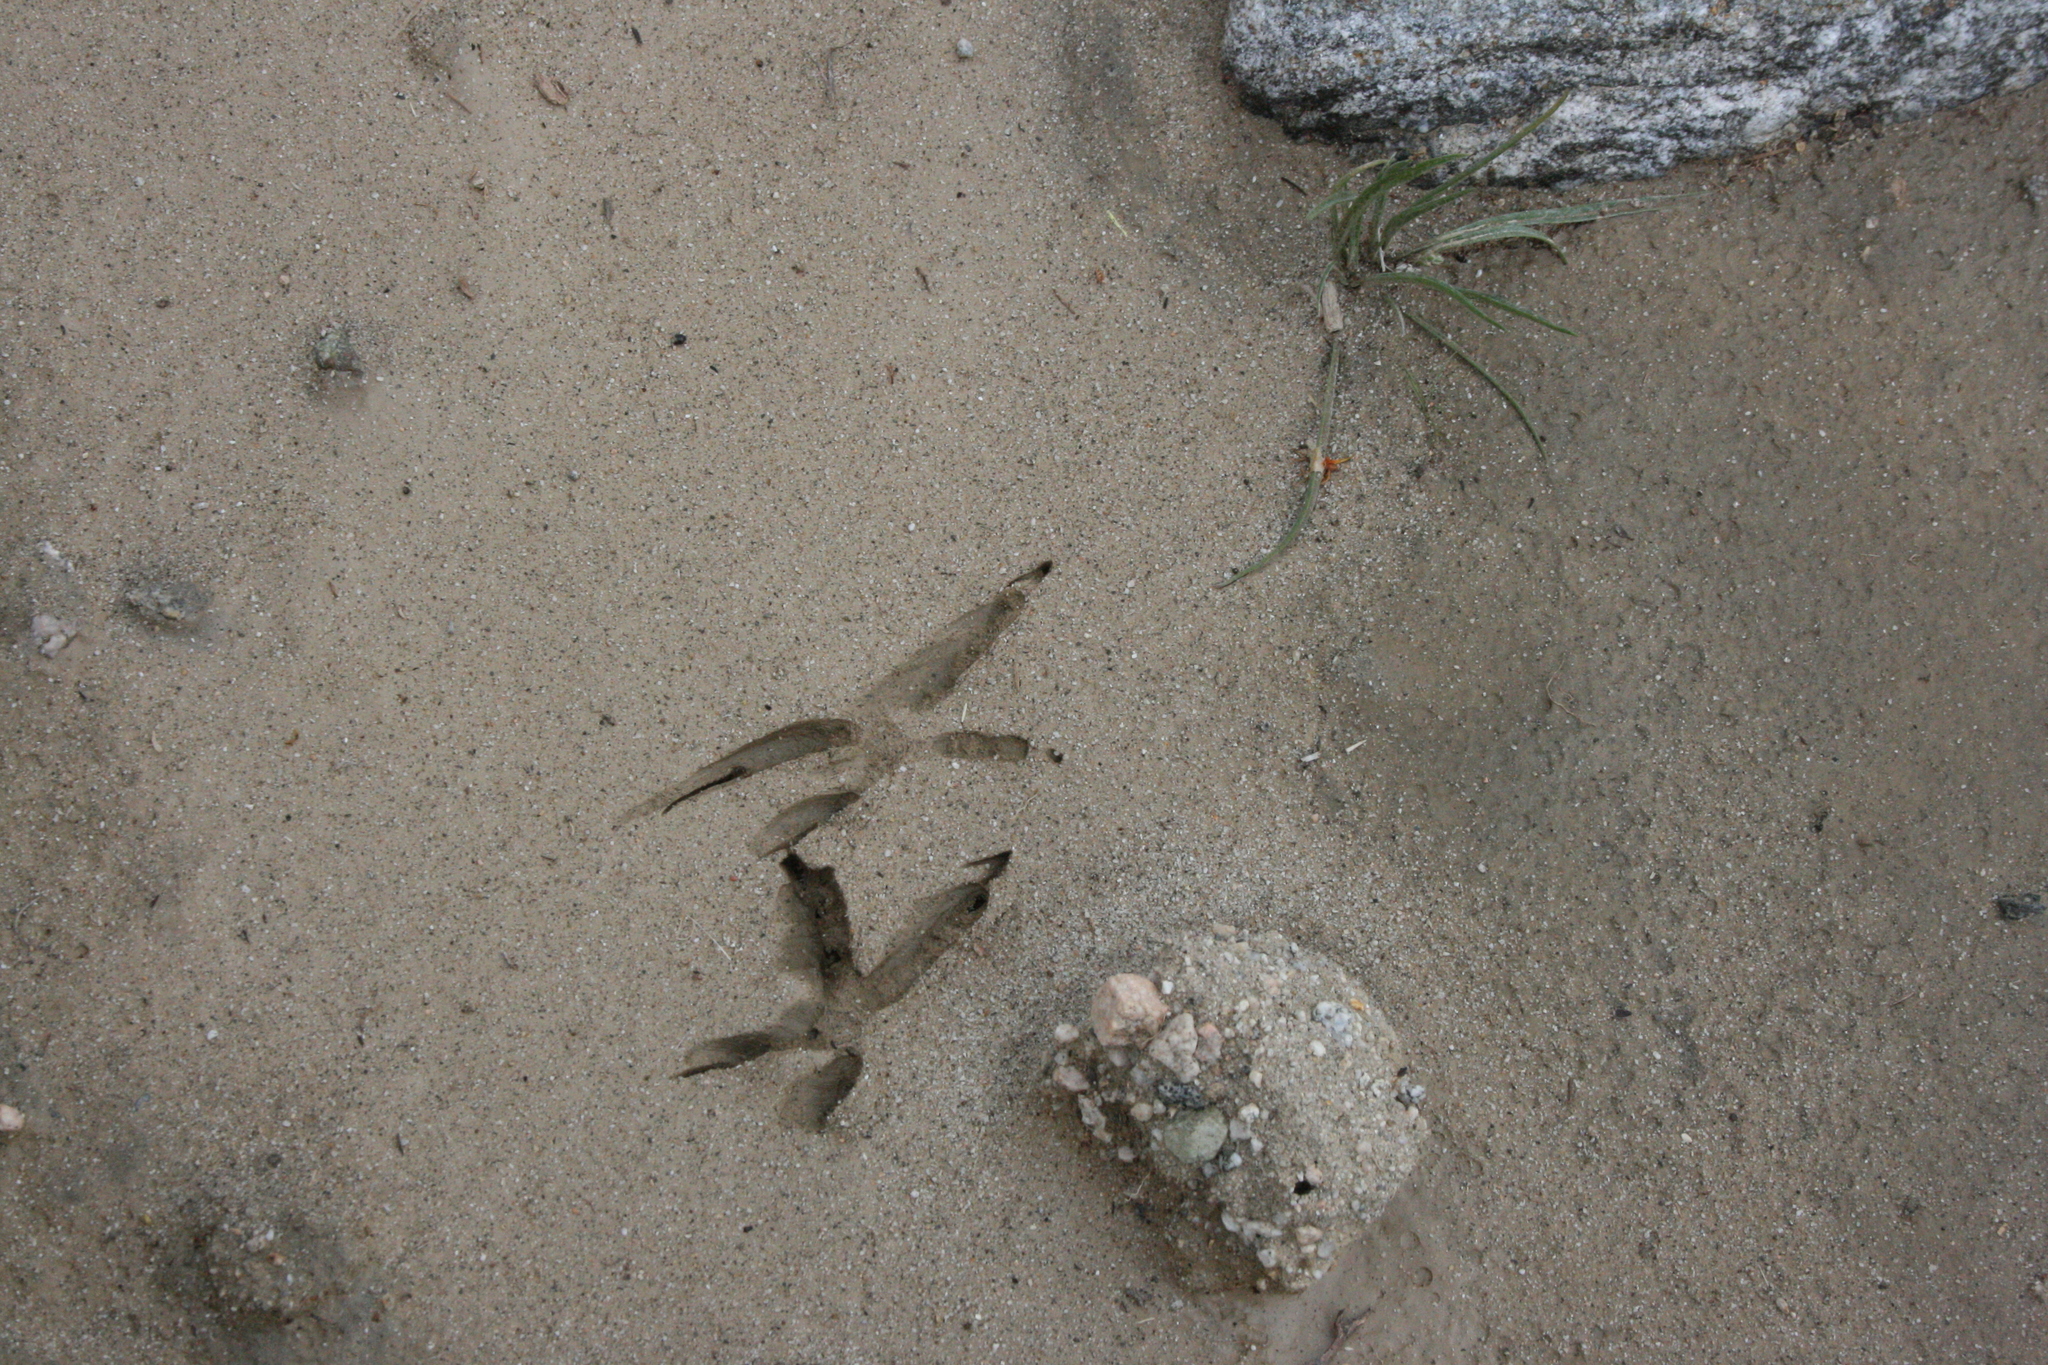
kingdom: Animalia
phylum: Chordata
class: Aves
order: Cuculiformes
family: Cuculidae
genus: Geococcyx
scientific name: Geococcyx californianus
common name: Greater roadrunner
